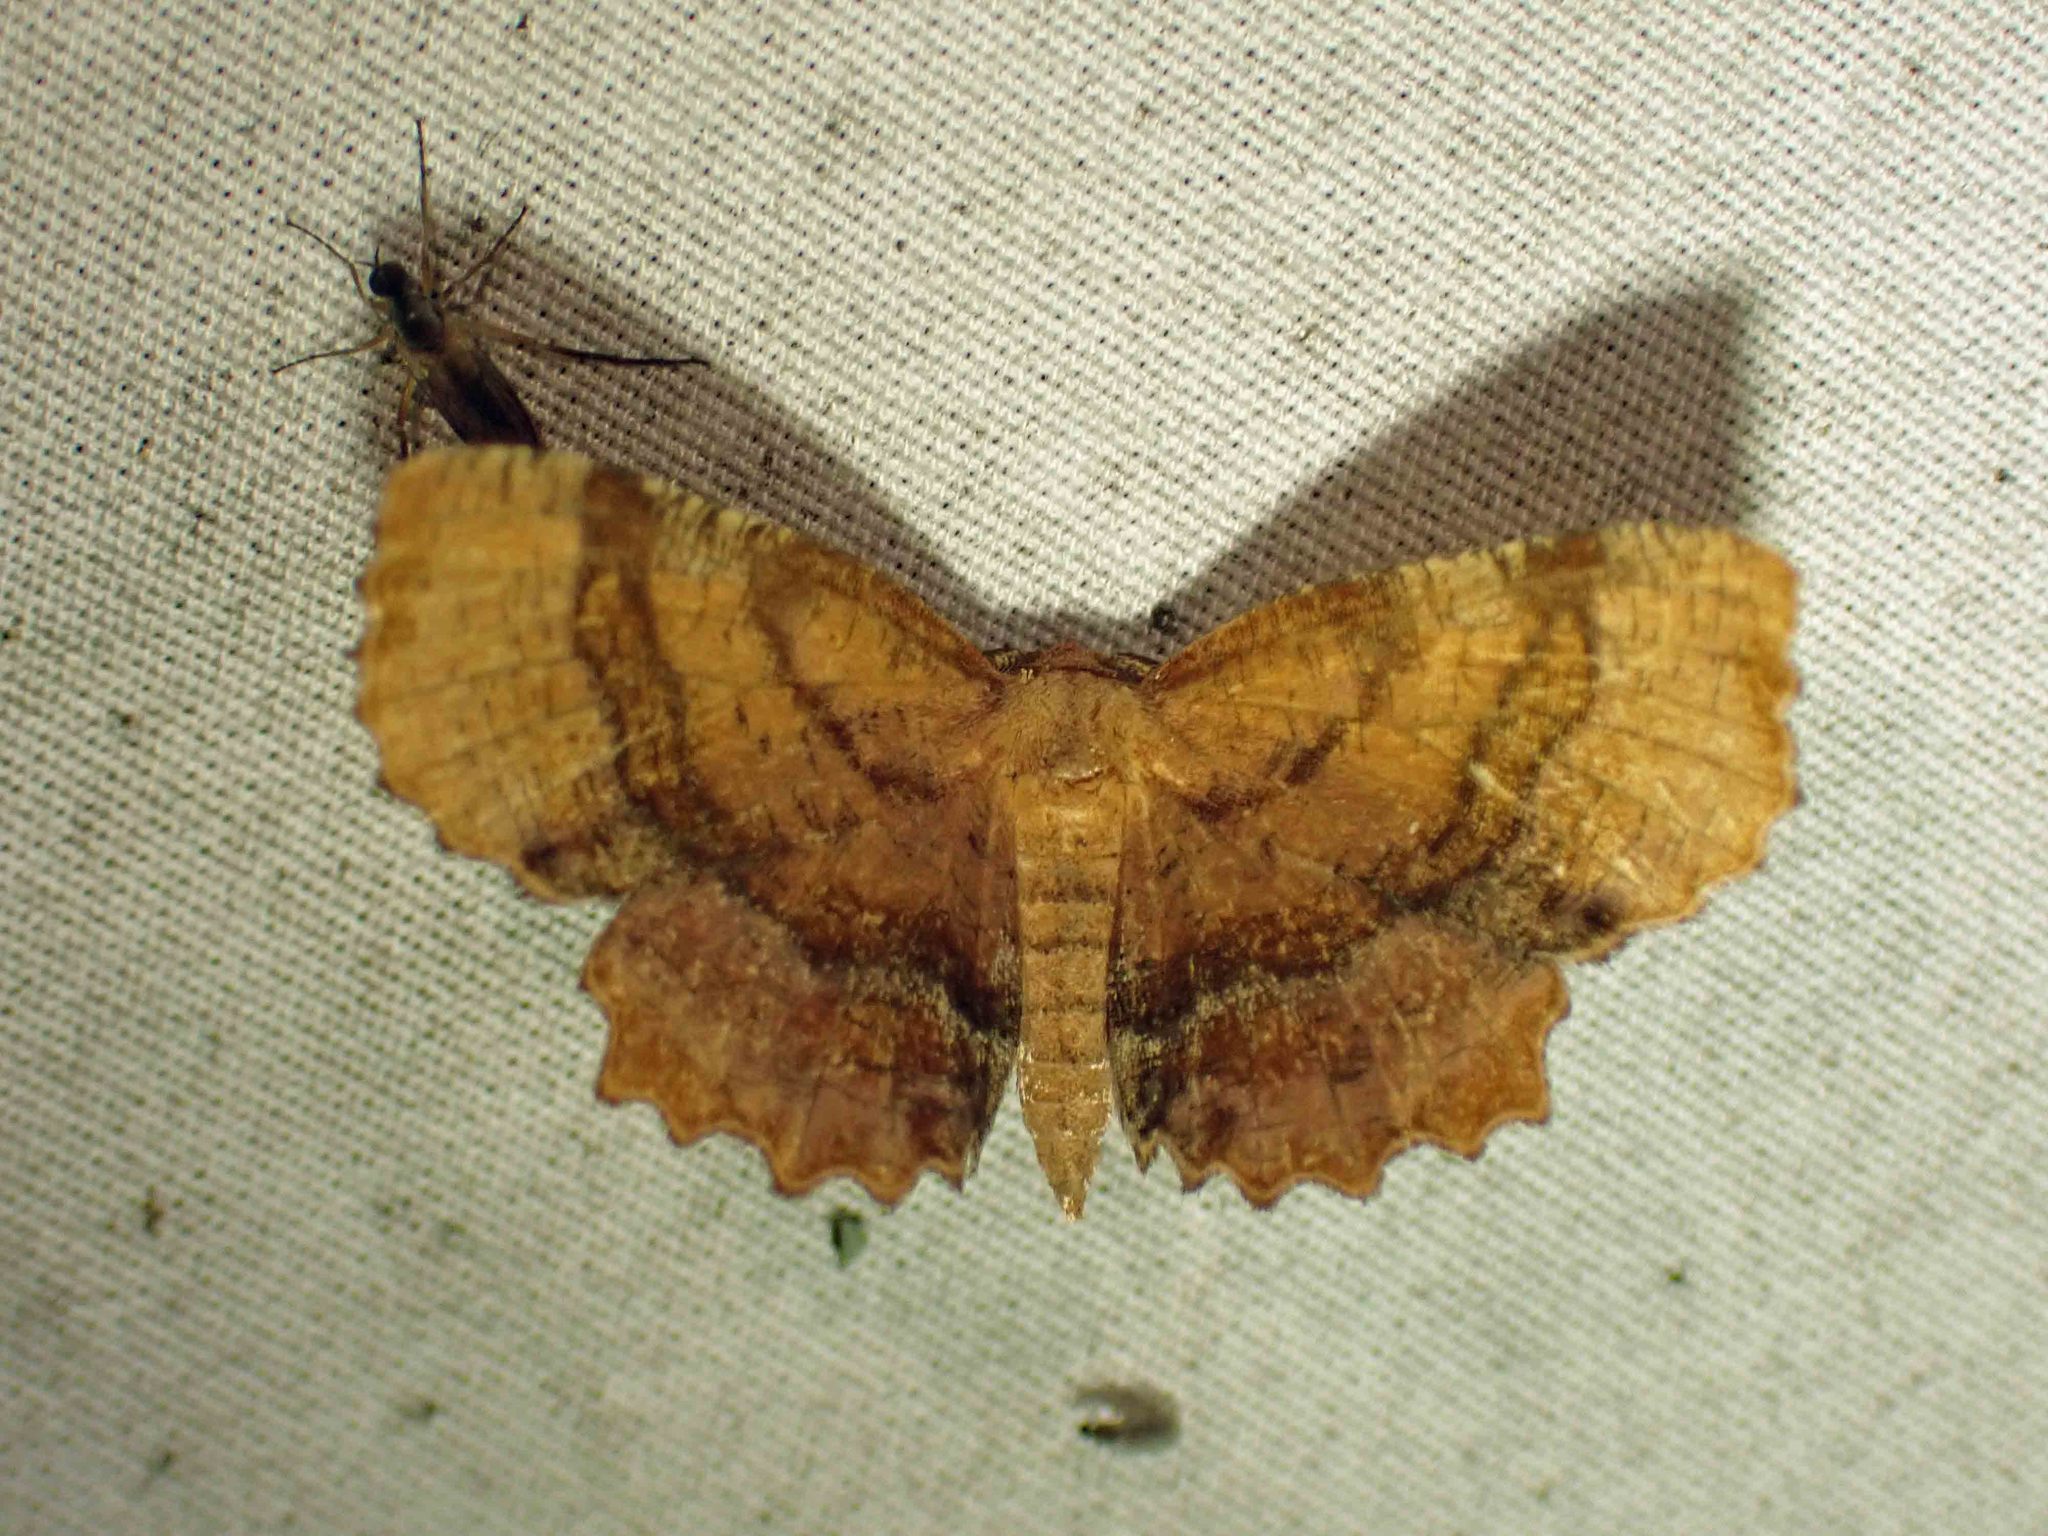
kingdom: Animalia
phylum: Arthropoda
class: Insecta
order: Lepidoptera
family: Geometridae
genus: Cepphis
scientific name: Cepphis armataria
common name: Scallop moth
